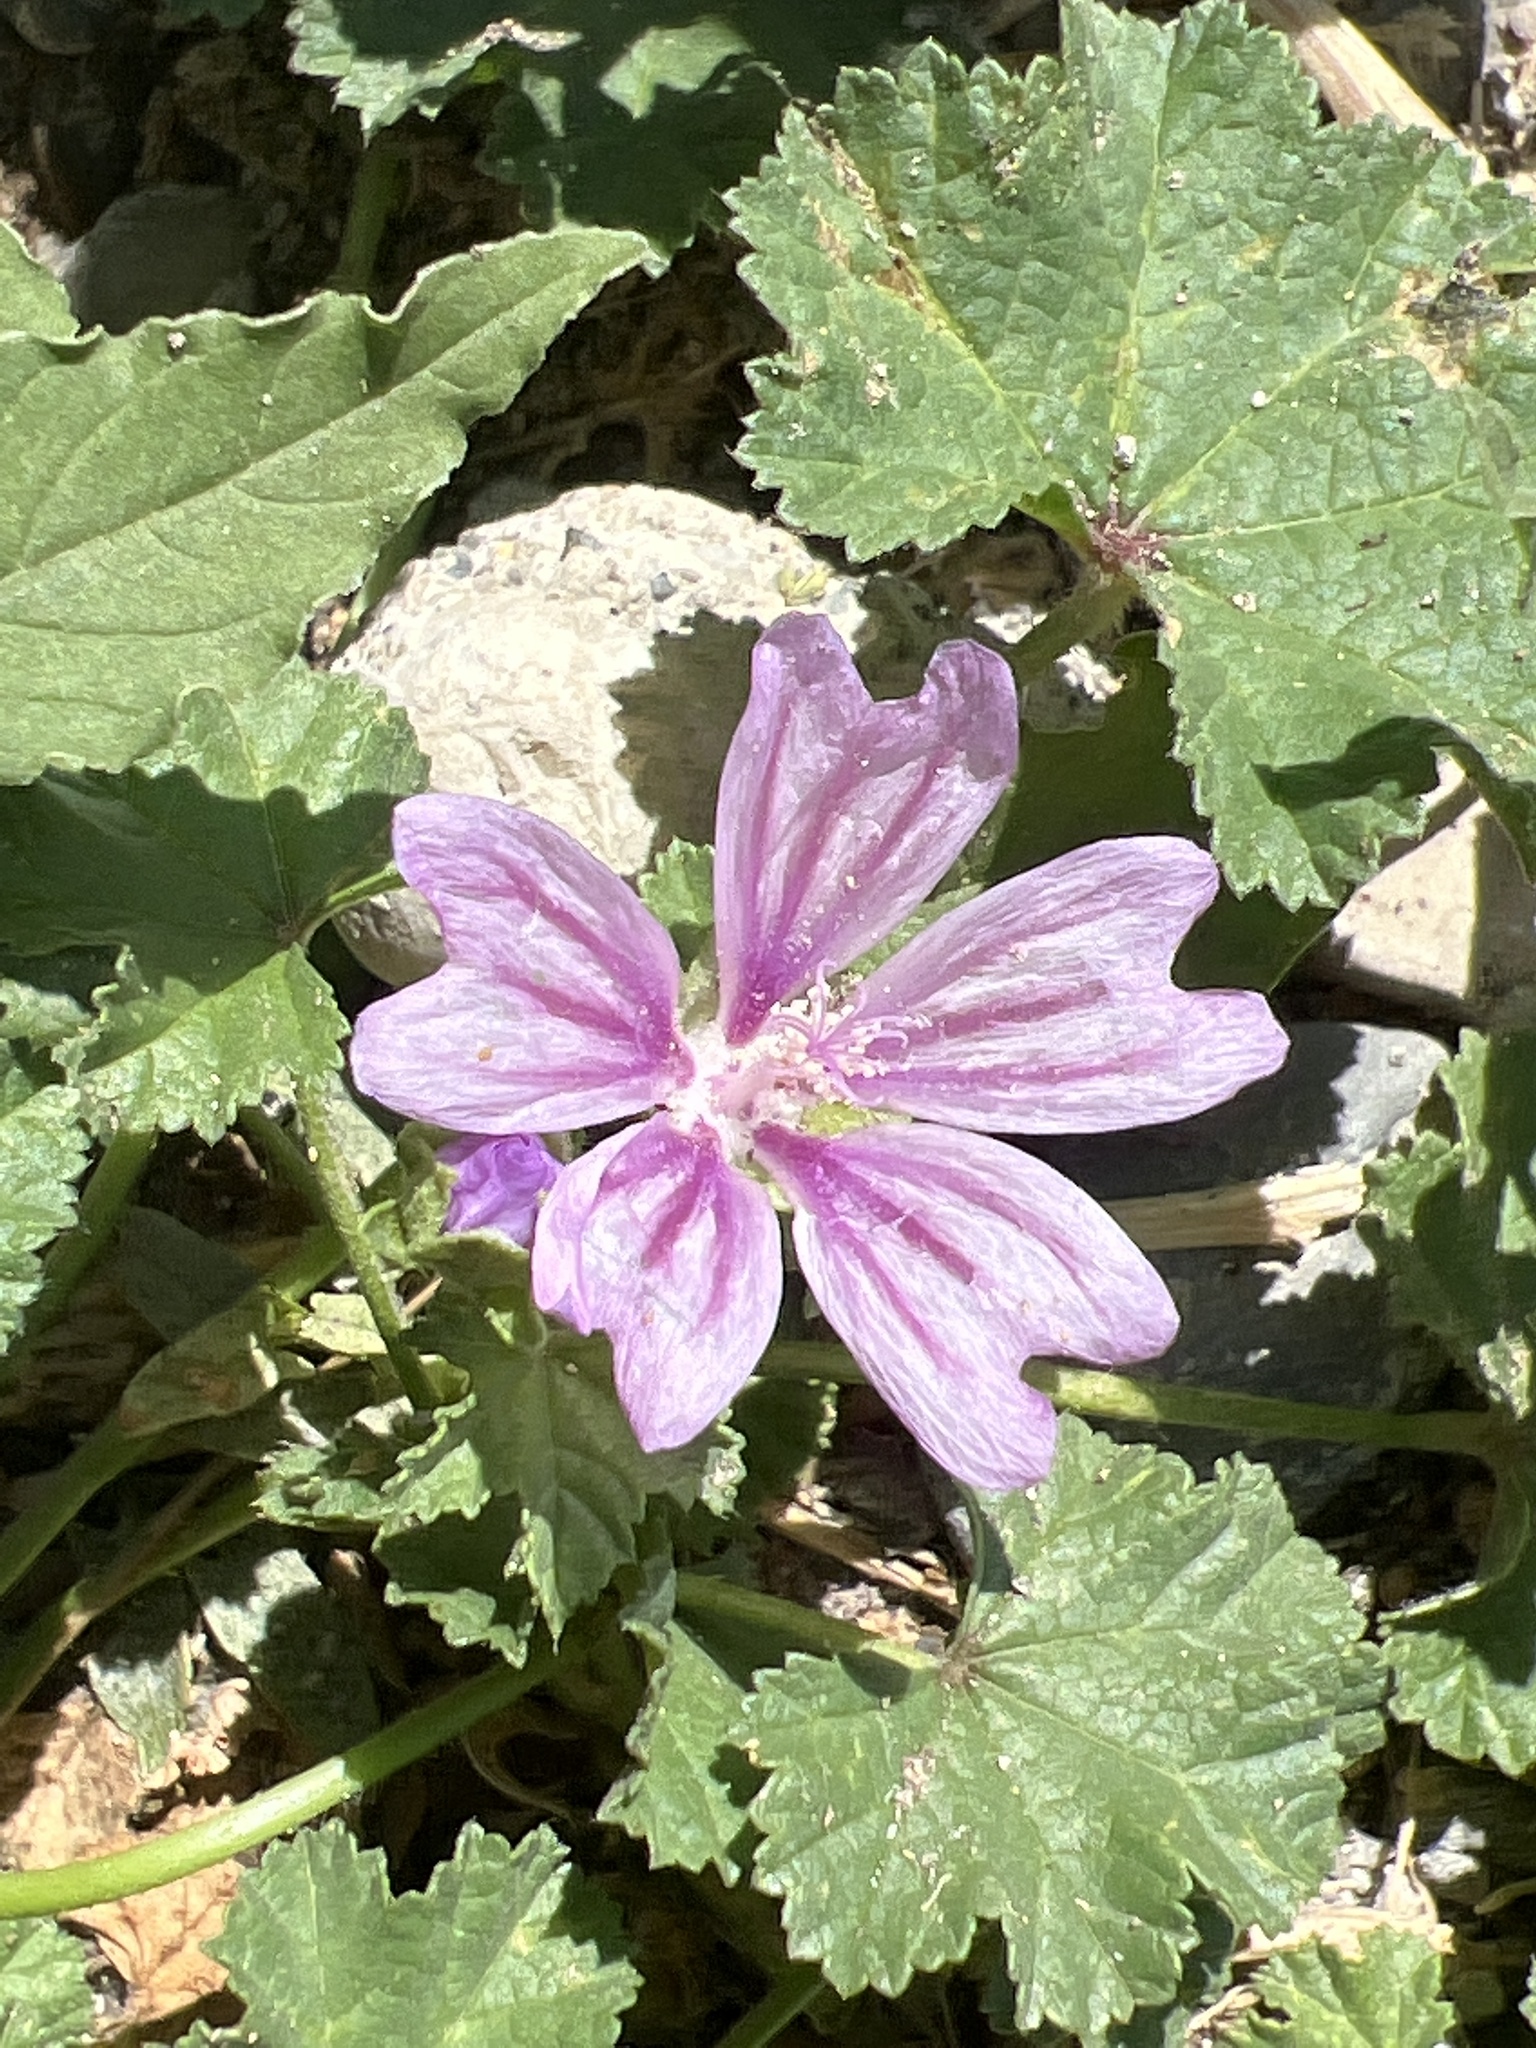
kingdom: Plantae
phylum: Tracheophyta
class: Magnoliopsida
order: Malvales
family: Malvaceae
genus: Malva
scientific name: Malva sylvestris
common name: Common mallow
